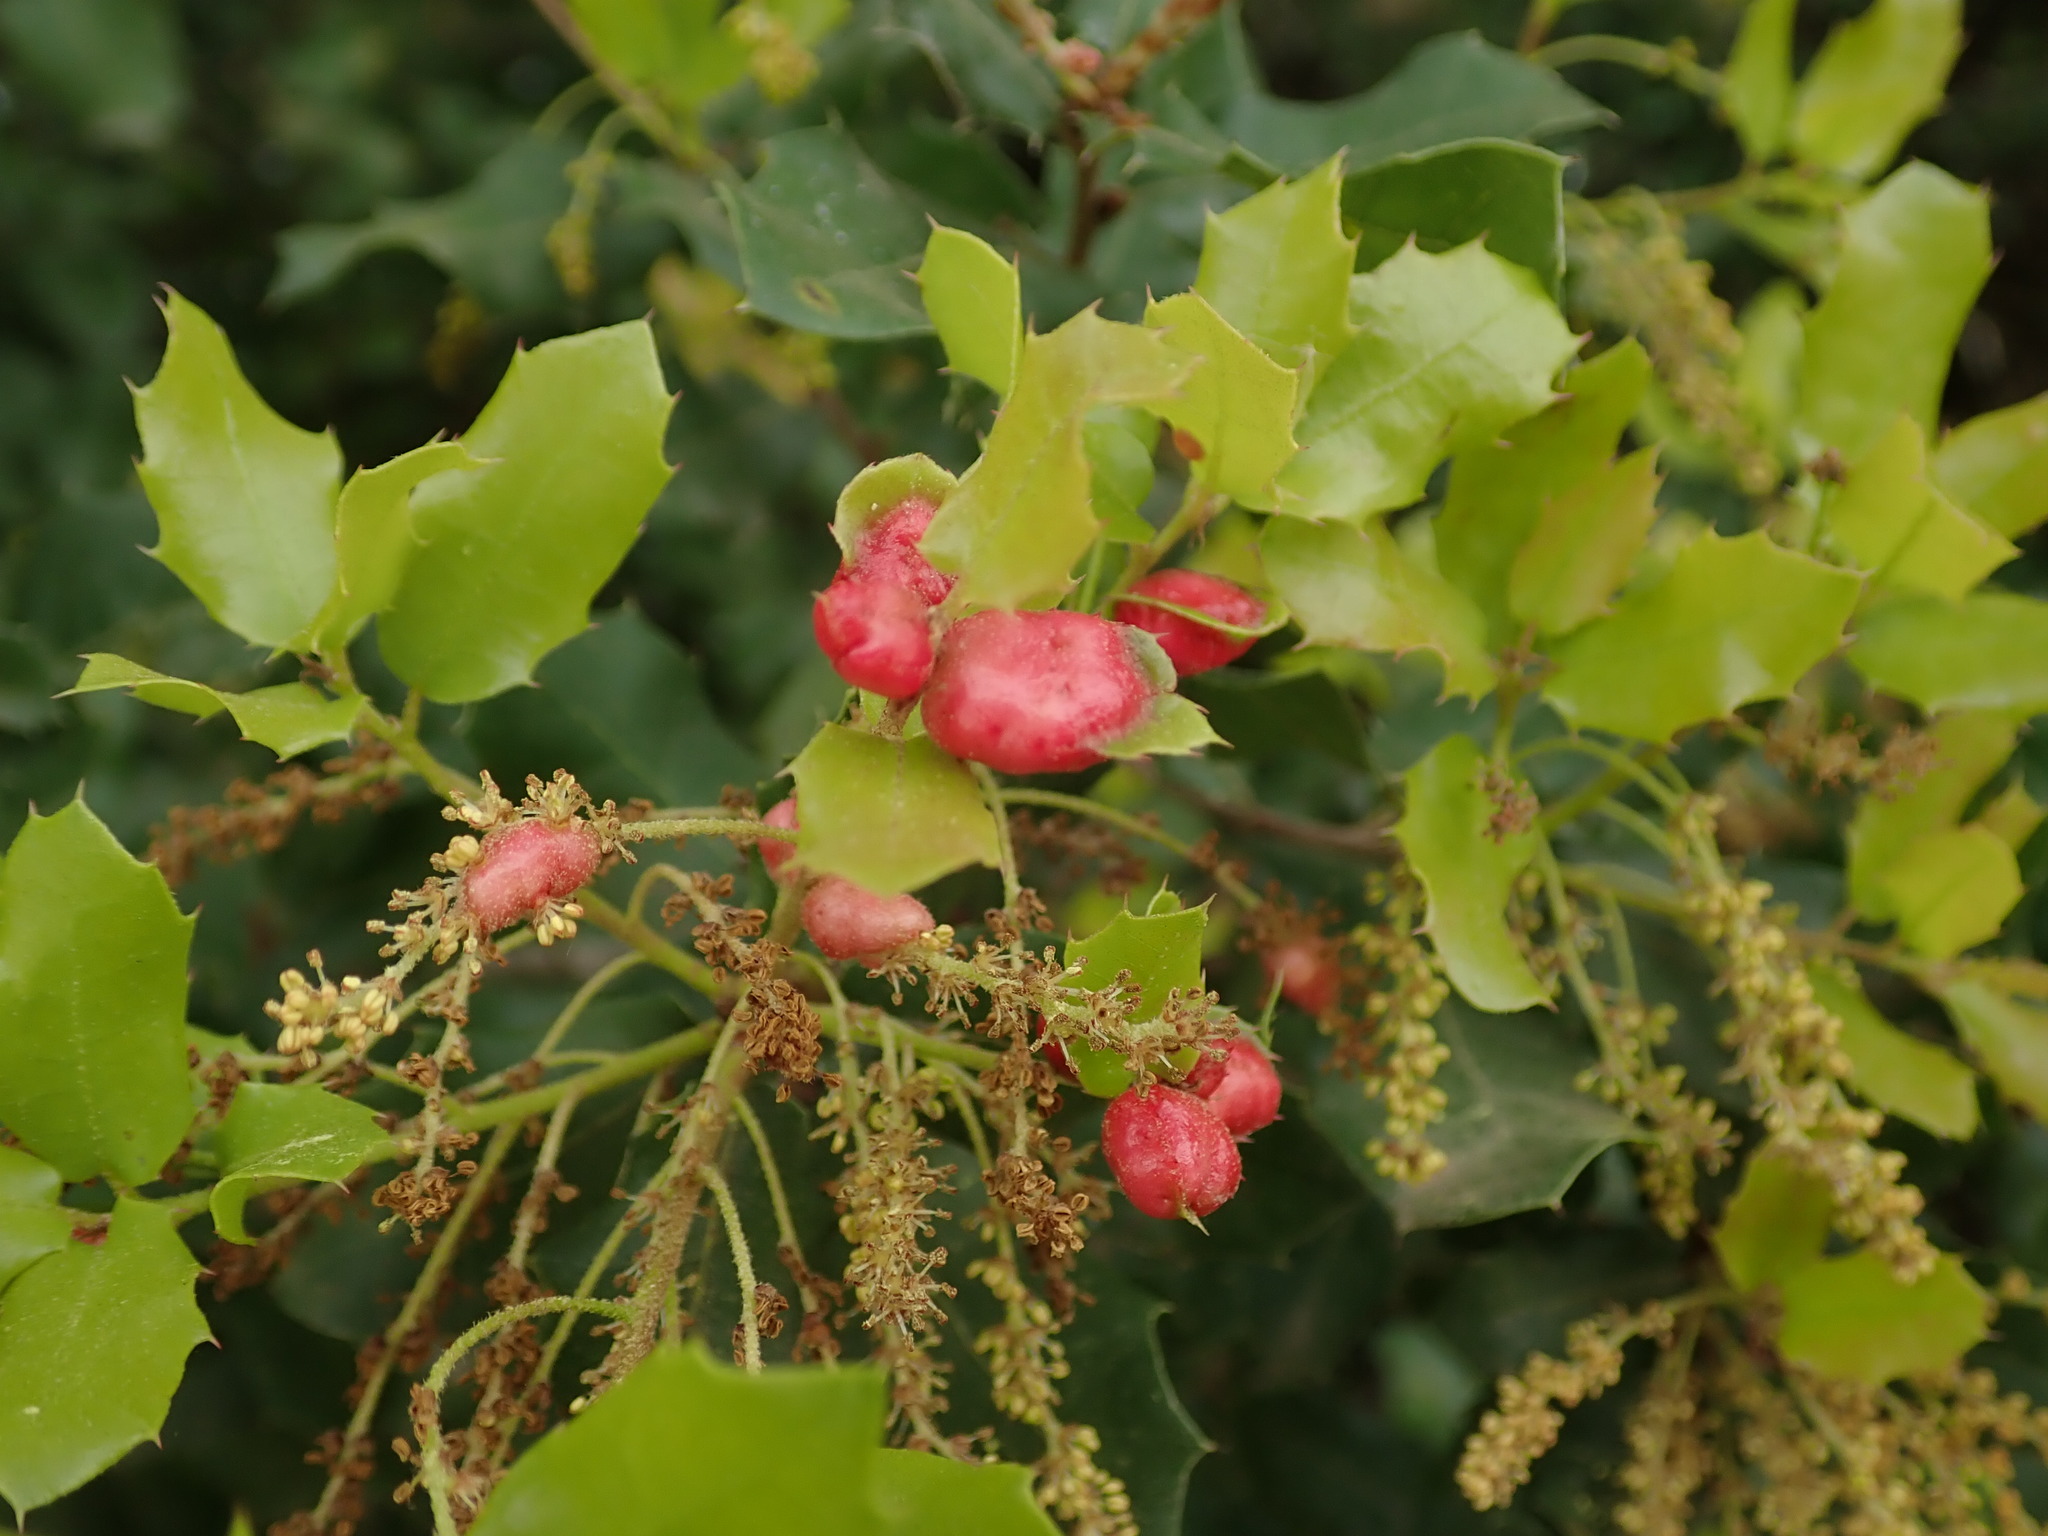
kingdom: Animalia
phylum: Arthropoda
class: Insecta
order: Hymenoptera
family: Cynipidae
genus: Plagiotrochus
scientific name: Plagiotrochus quercusilicis
